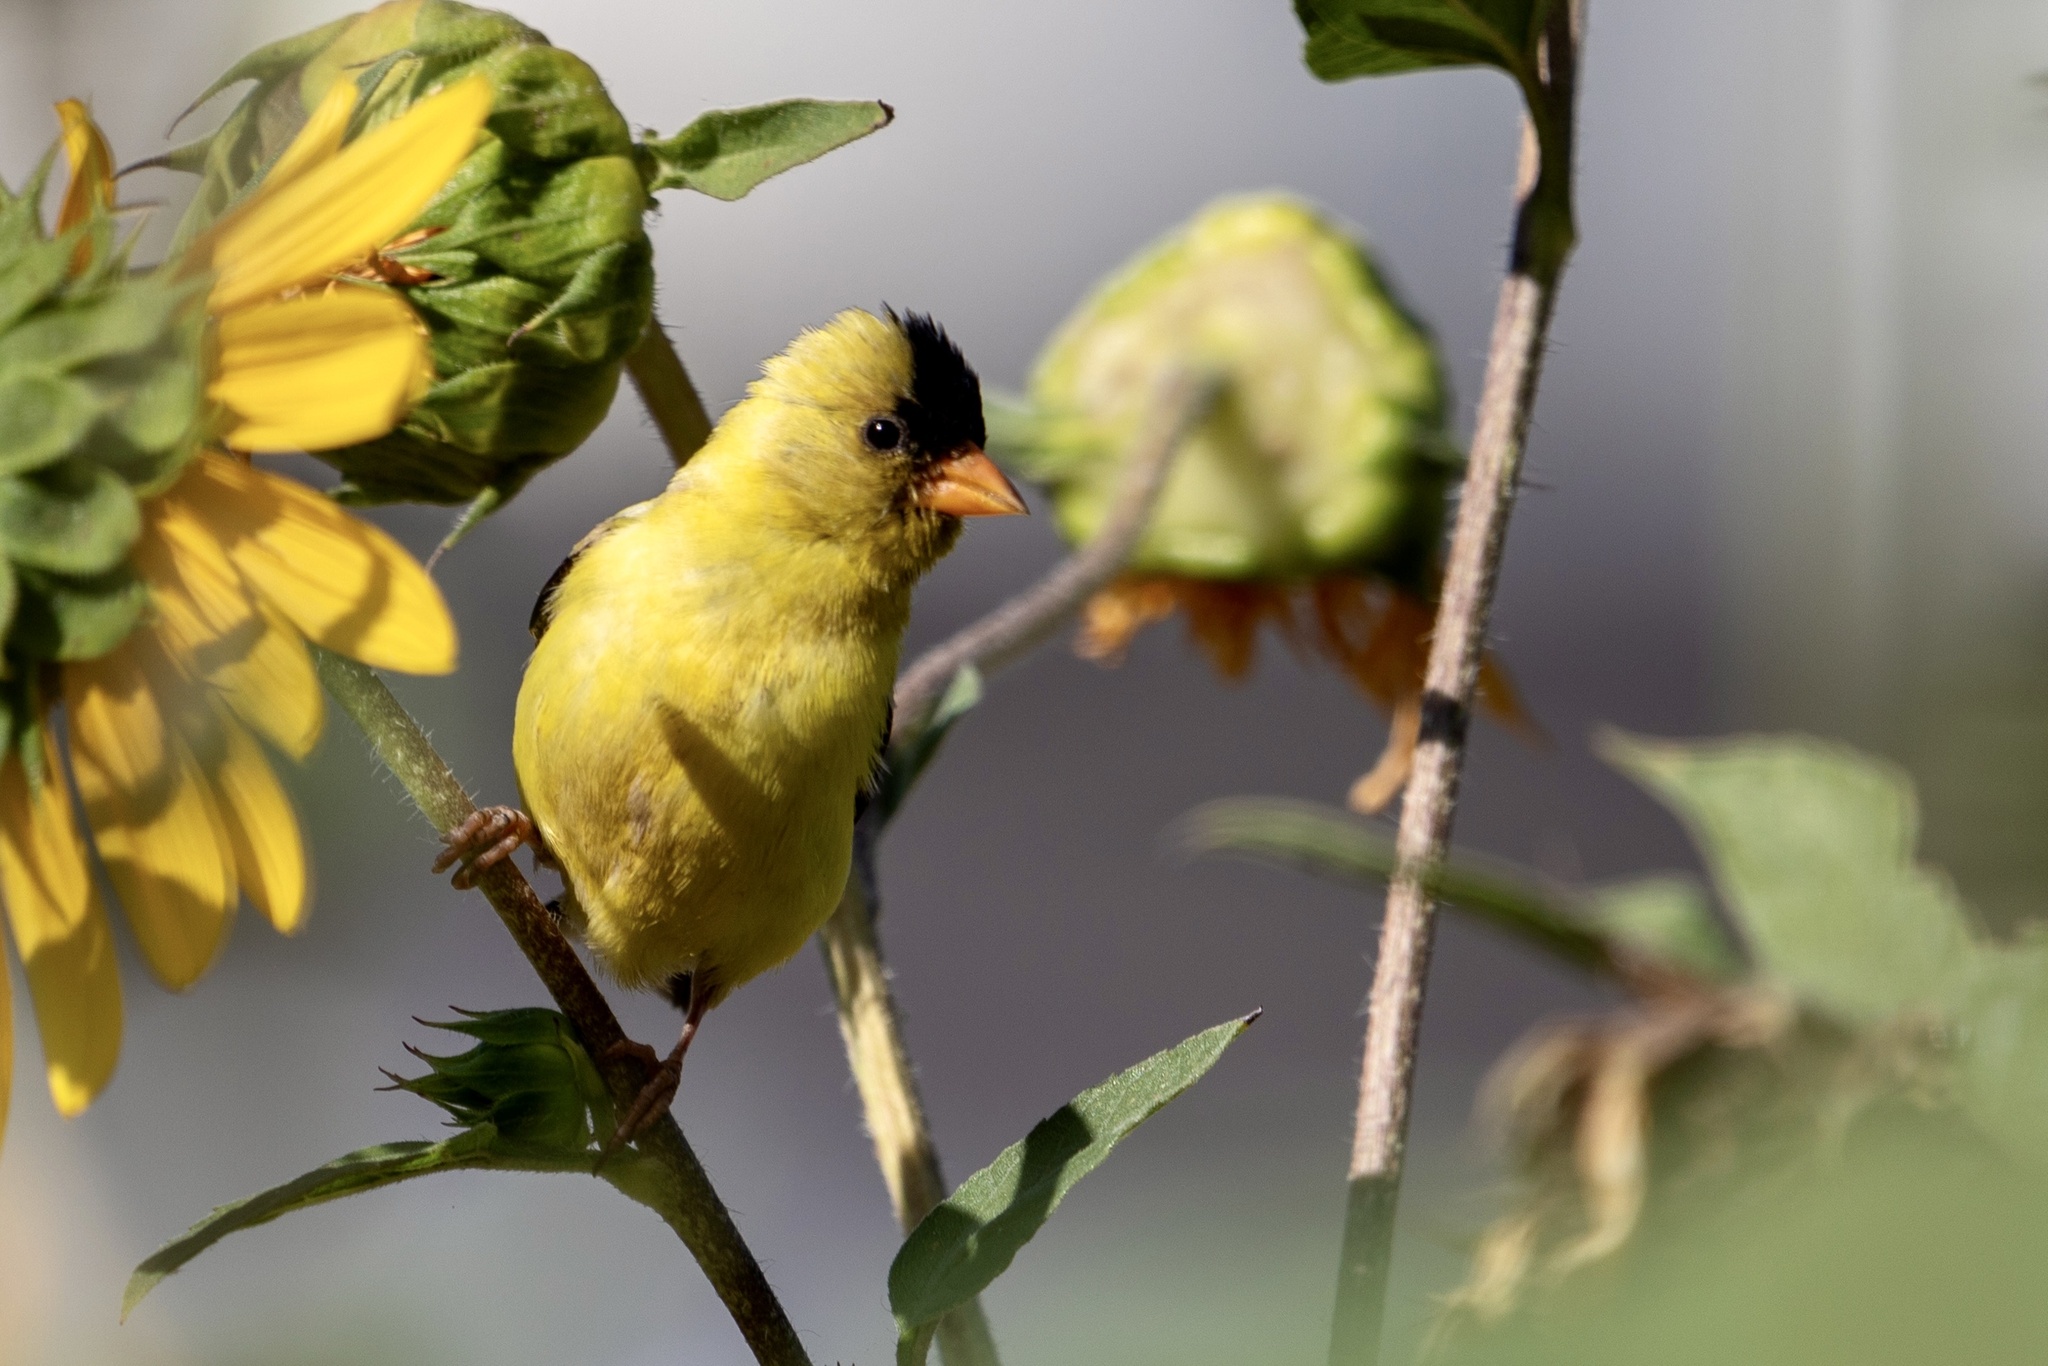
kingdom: Animalia
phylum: Chordata
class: Aves
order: Passeriformes
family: Fringillidae
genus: Spinus
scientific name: Spinus tristis
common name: American goldfinch
